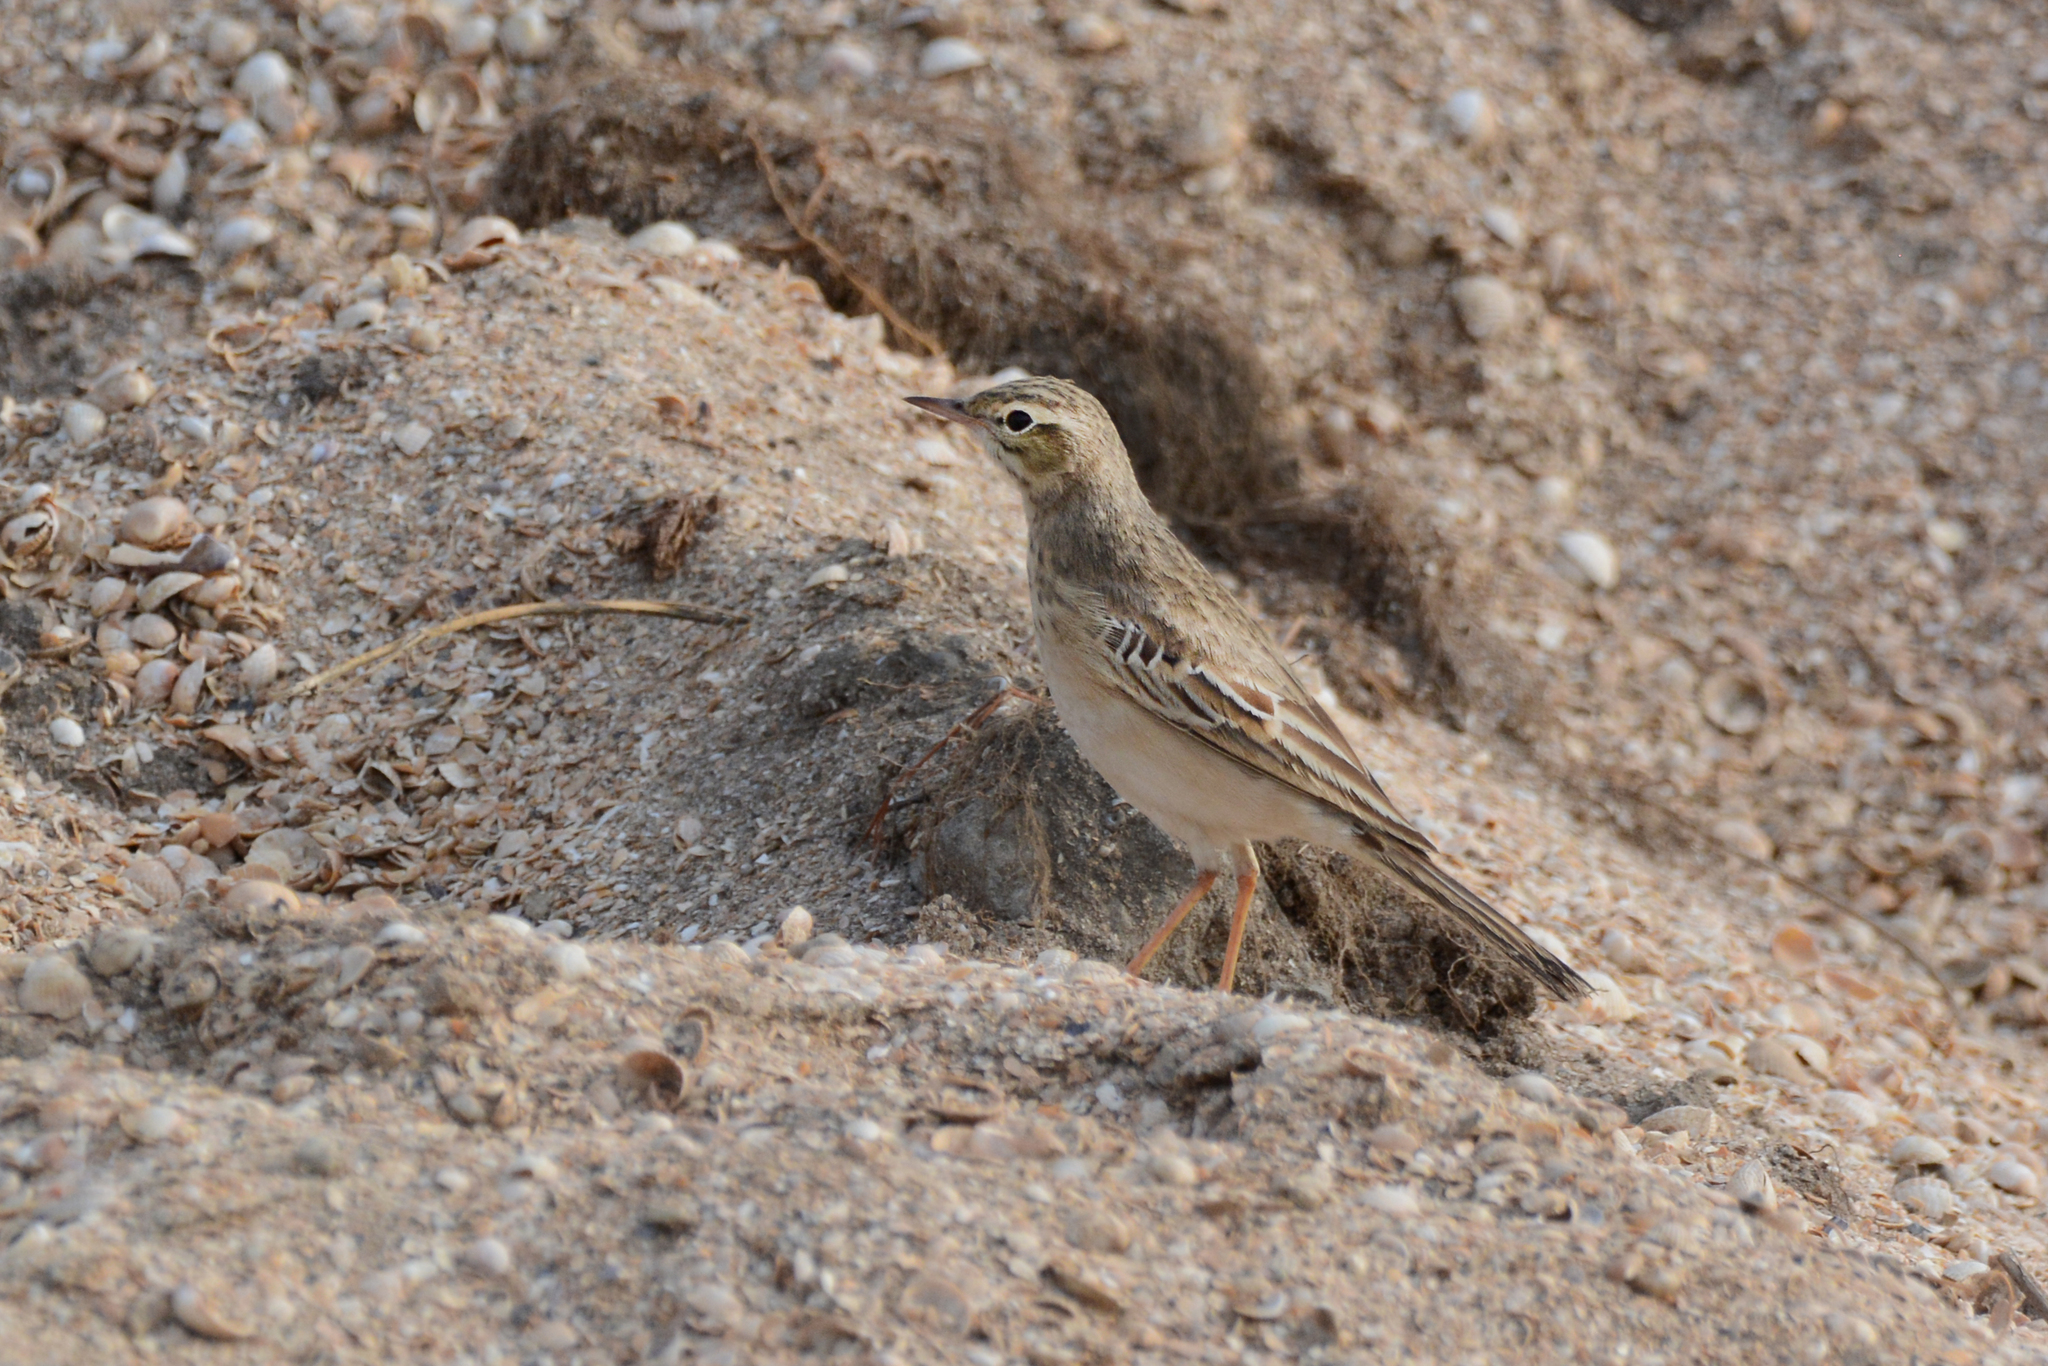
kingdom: Animalia
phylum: Chordata
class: Aves
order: Passeriformes
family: Motacillidae
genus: Anthus
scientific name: Anthus campestris
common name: Tawny pipit
